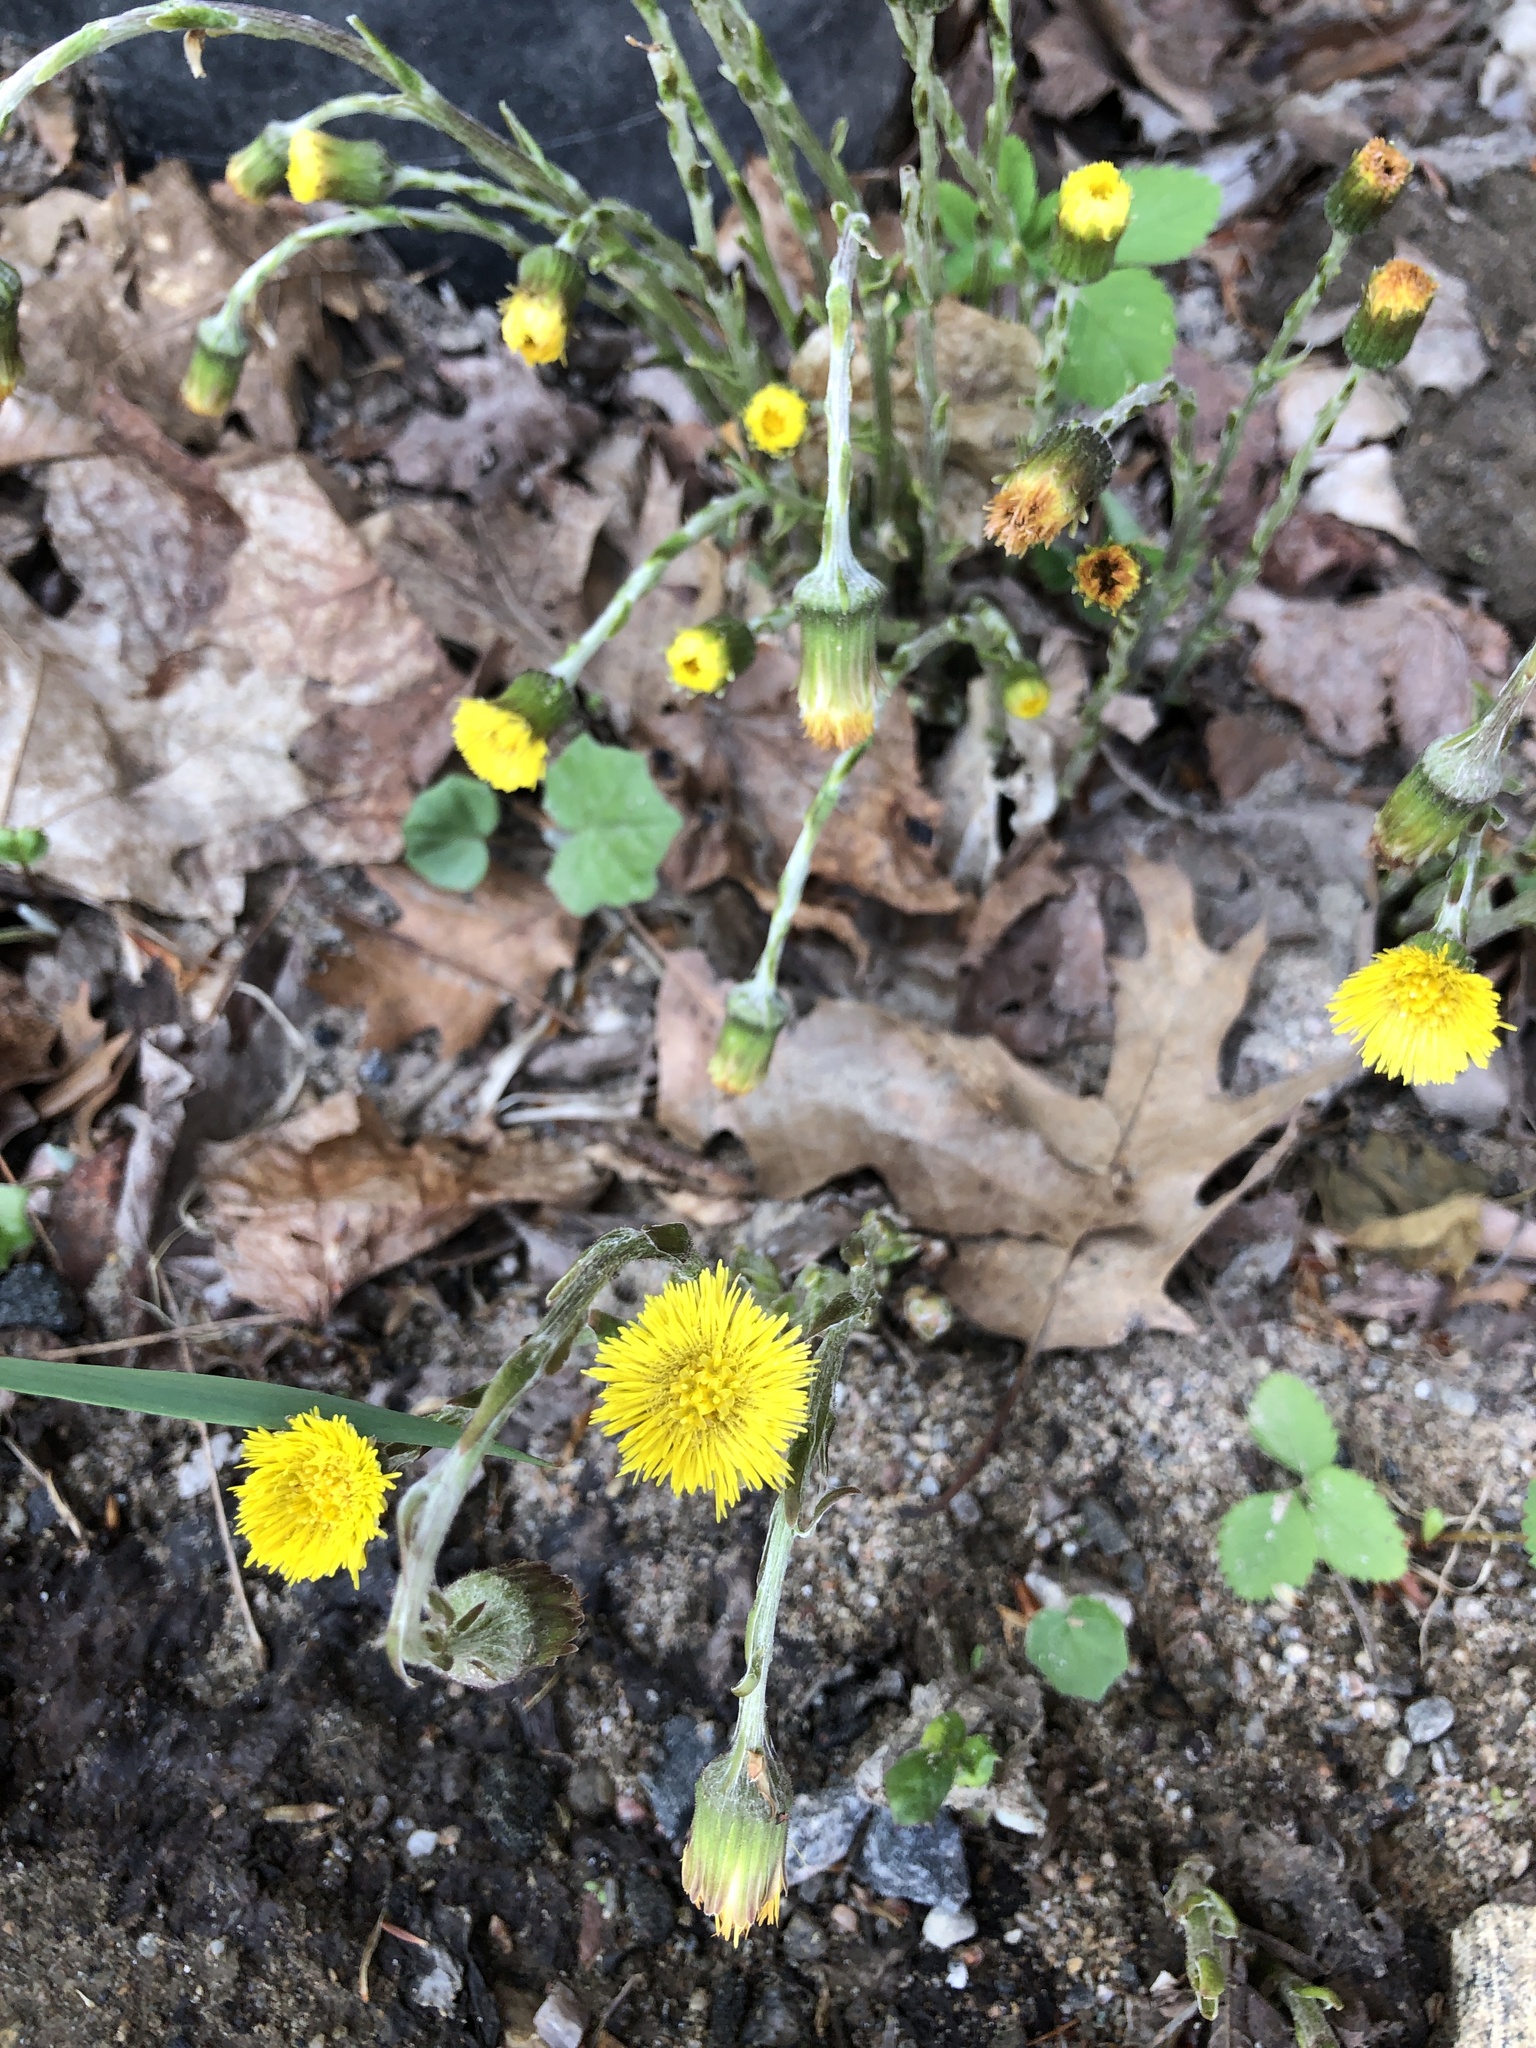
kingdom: Plantae
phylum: Tracheophyta
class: Magnoliopsida
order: Asterales
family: Asteraceae
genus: Tussilago
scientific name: Tussilago farfara
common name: Coltsfoot
